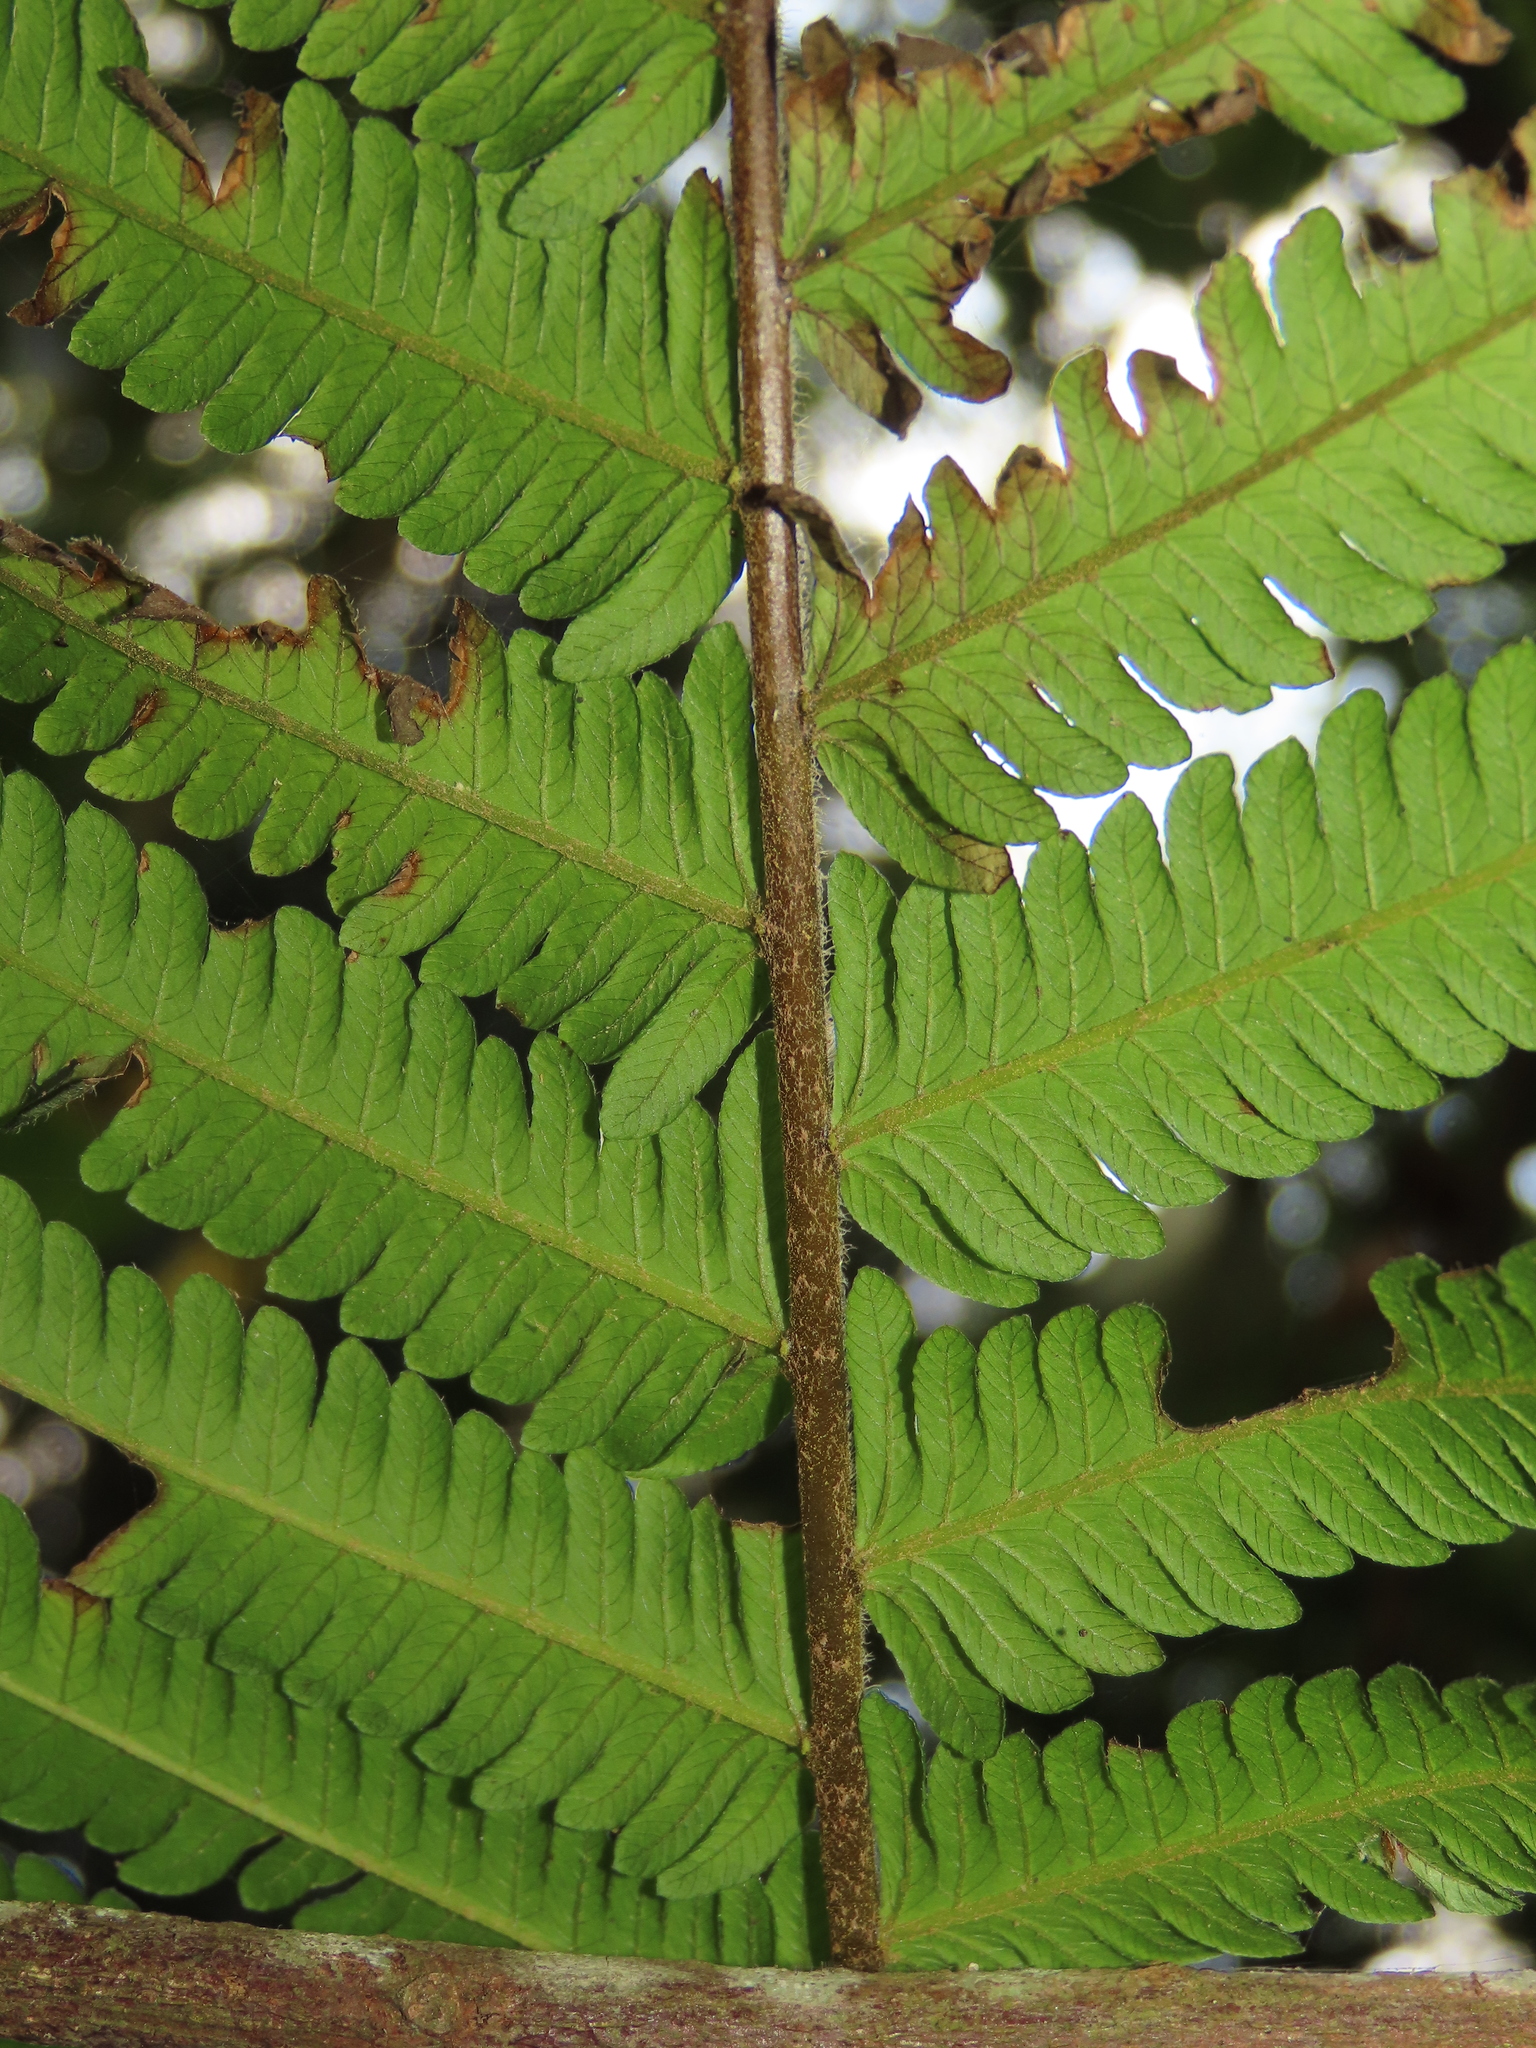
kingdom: Plantae
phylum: Tracheophyta
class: Polypodiopsida
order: Polypodiales
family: Thelypteridaceae
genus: Sphaerostephanos
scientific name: Sphaerostephanos taiwanensis
